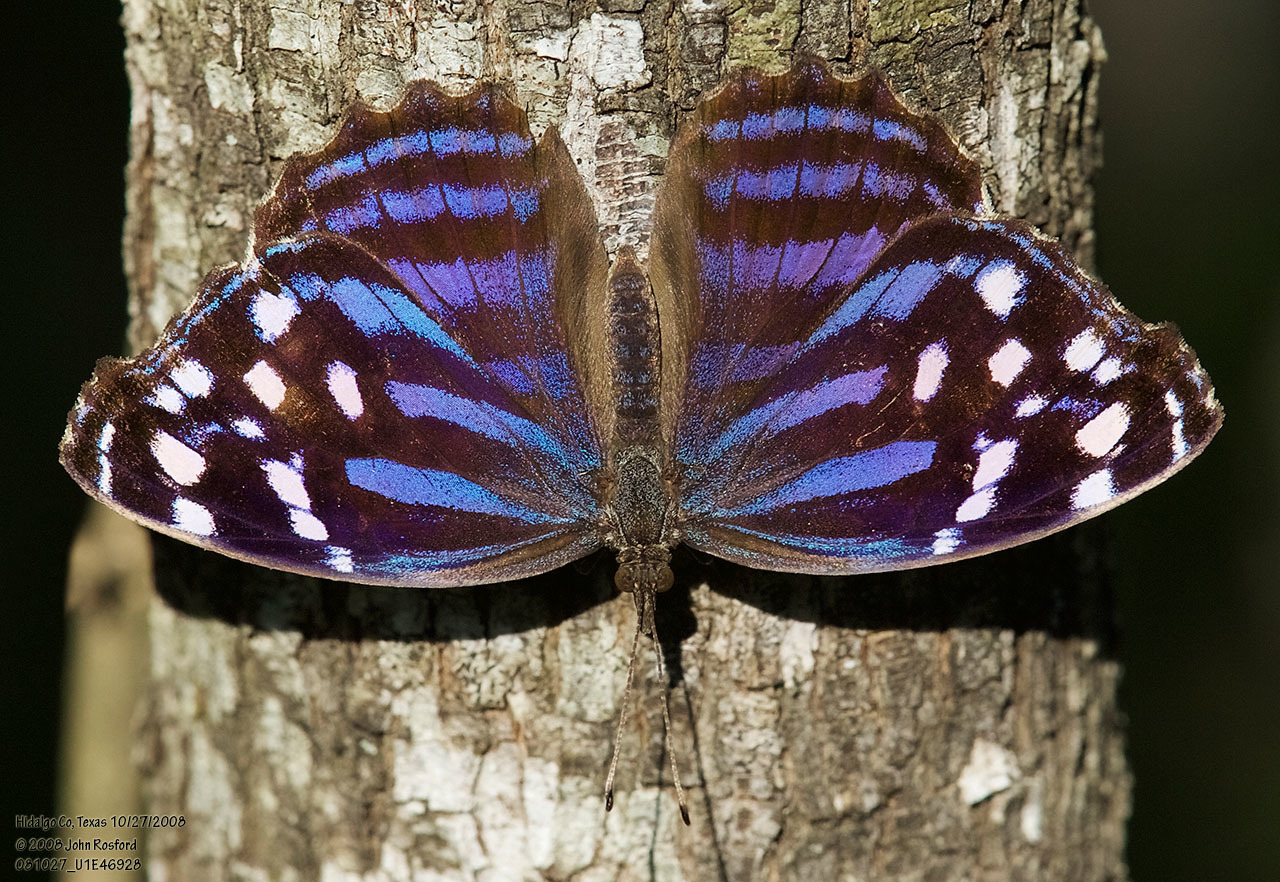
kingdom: Animalia
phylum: Arthropoda
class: Insecta
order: Lepidoptera
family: Nymphalidae
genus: Myscelia
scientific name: Myscelia ethusa
